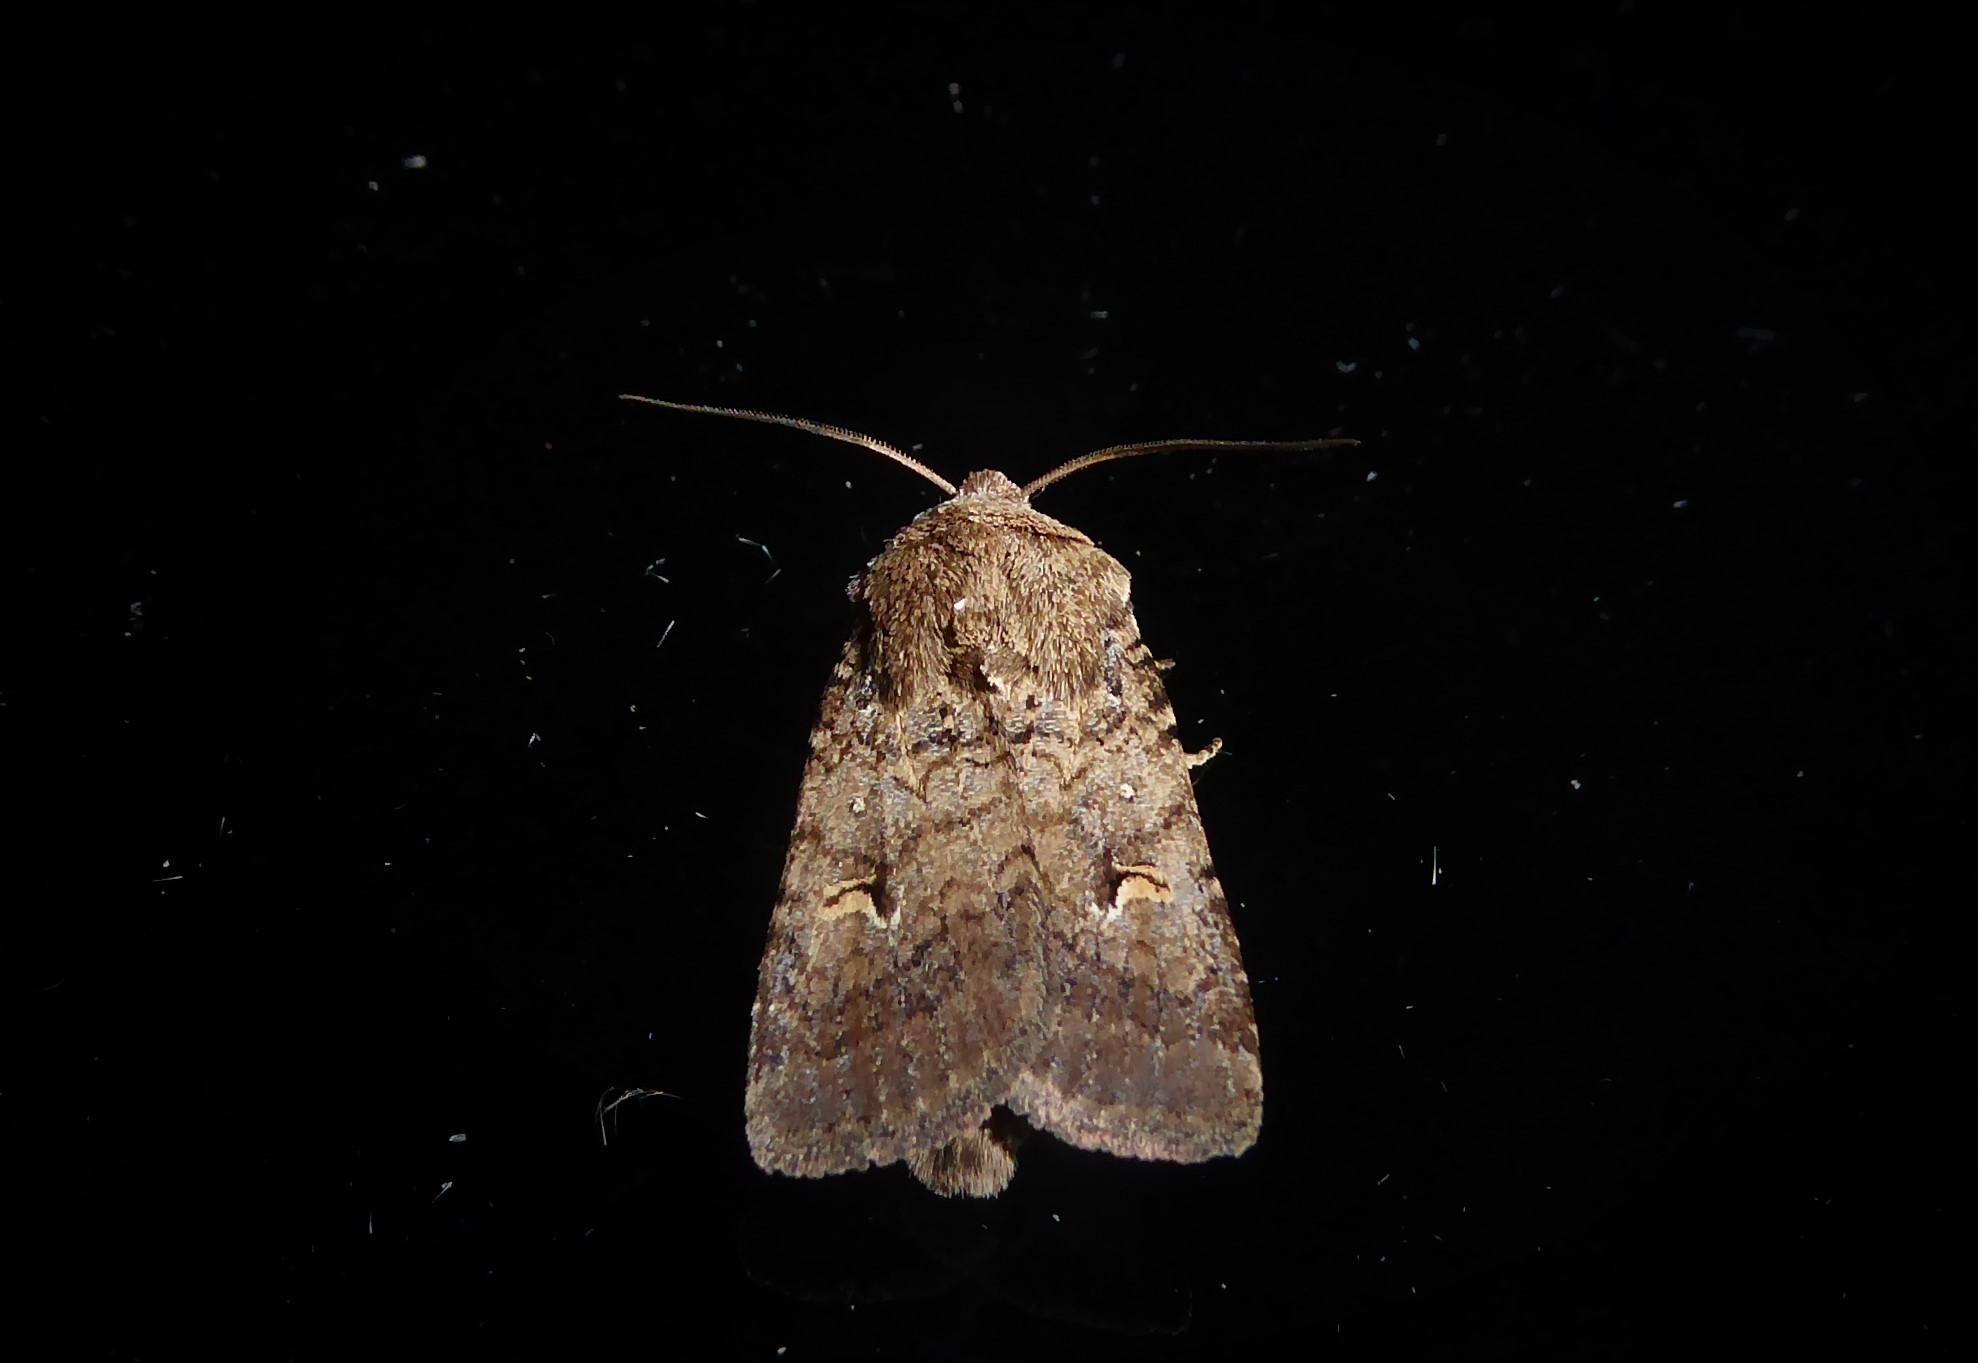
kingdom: Animalia
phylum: Arthropoda
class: Insecta
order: Lepidoptera
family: Noctuidae
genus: Proteuxoa
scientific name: Proteuxoa tetronycha
